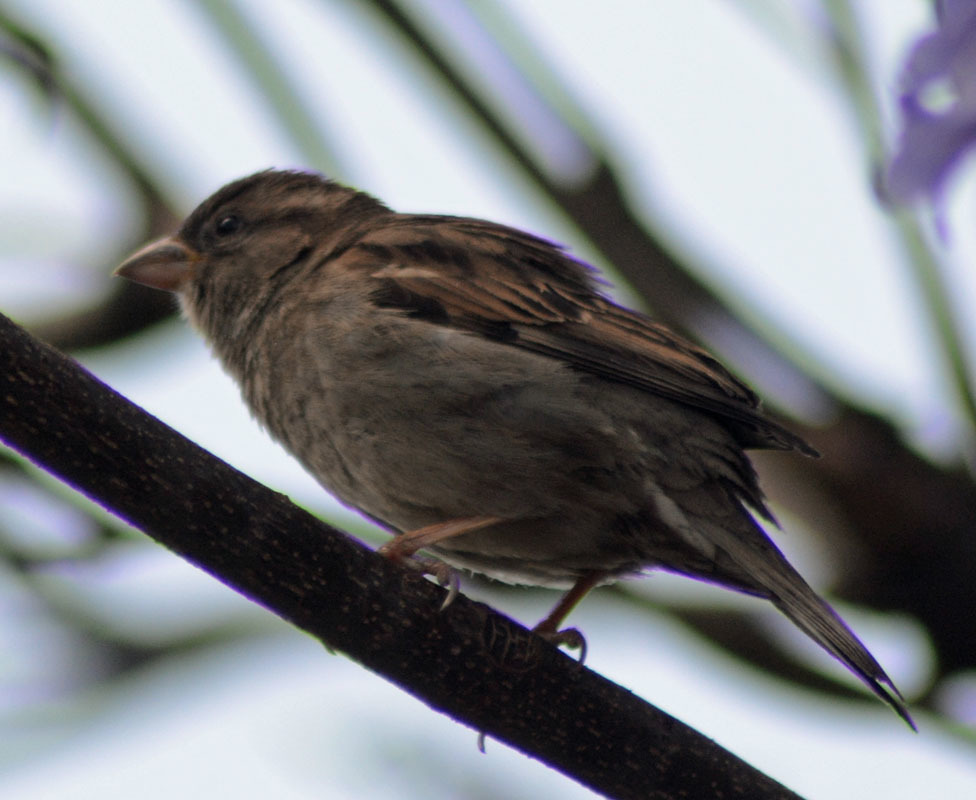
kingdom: Animalia
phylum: Chordata
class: Aves
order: Passeriformes
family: Passeridae
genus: Passer
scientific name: Passer domesticus
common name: House sparrow
